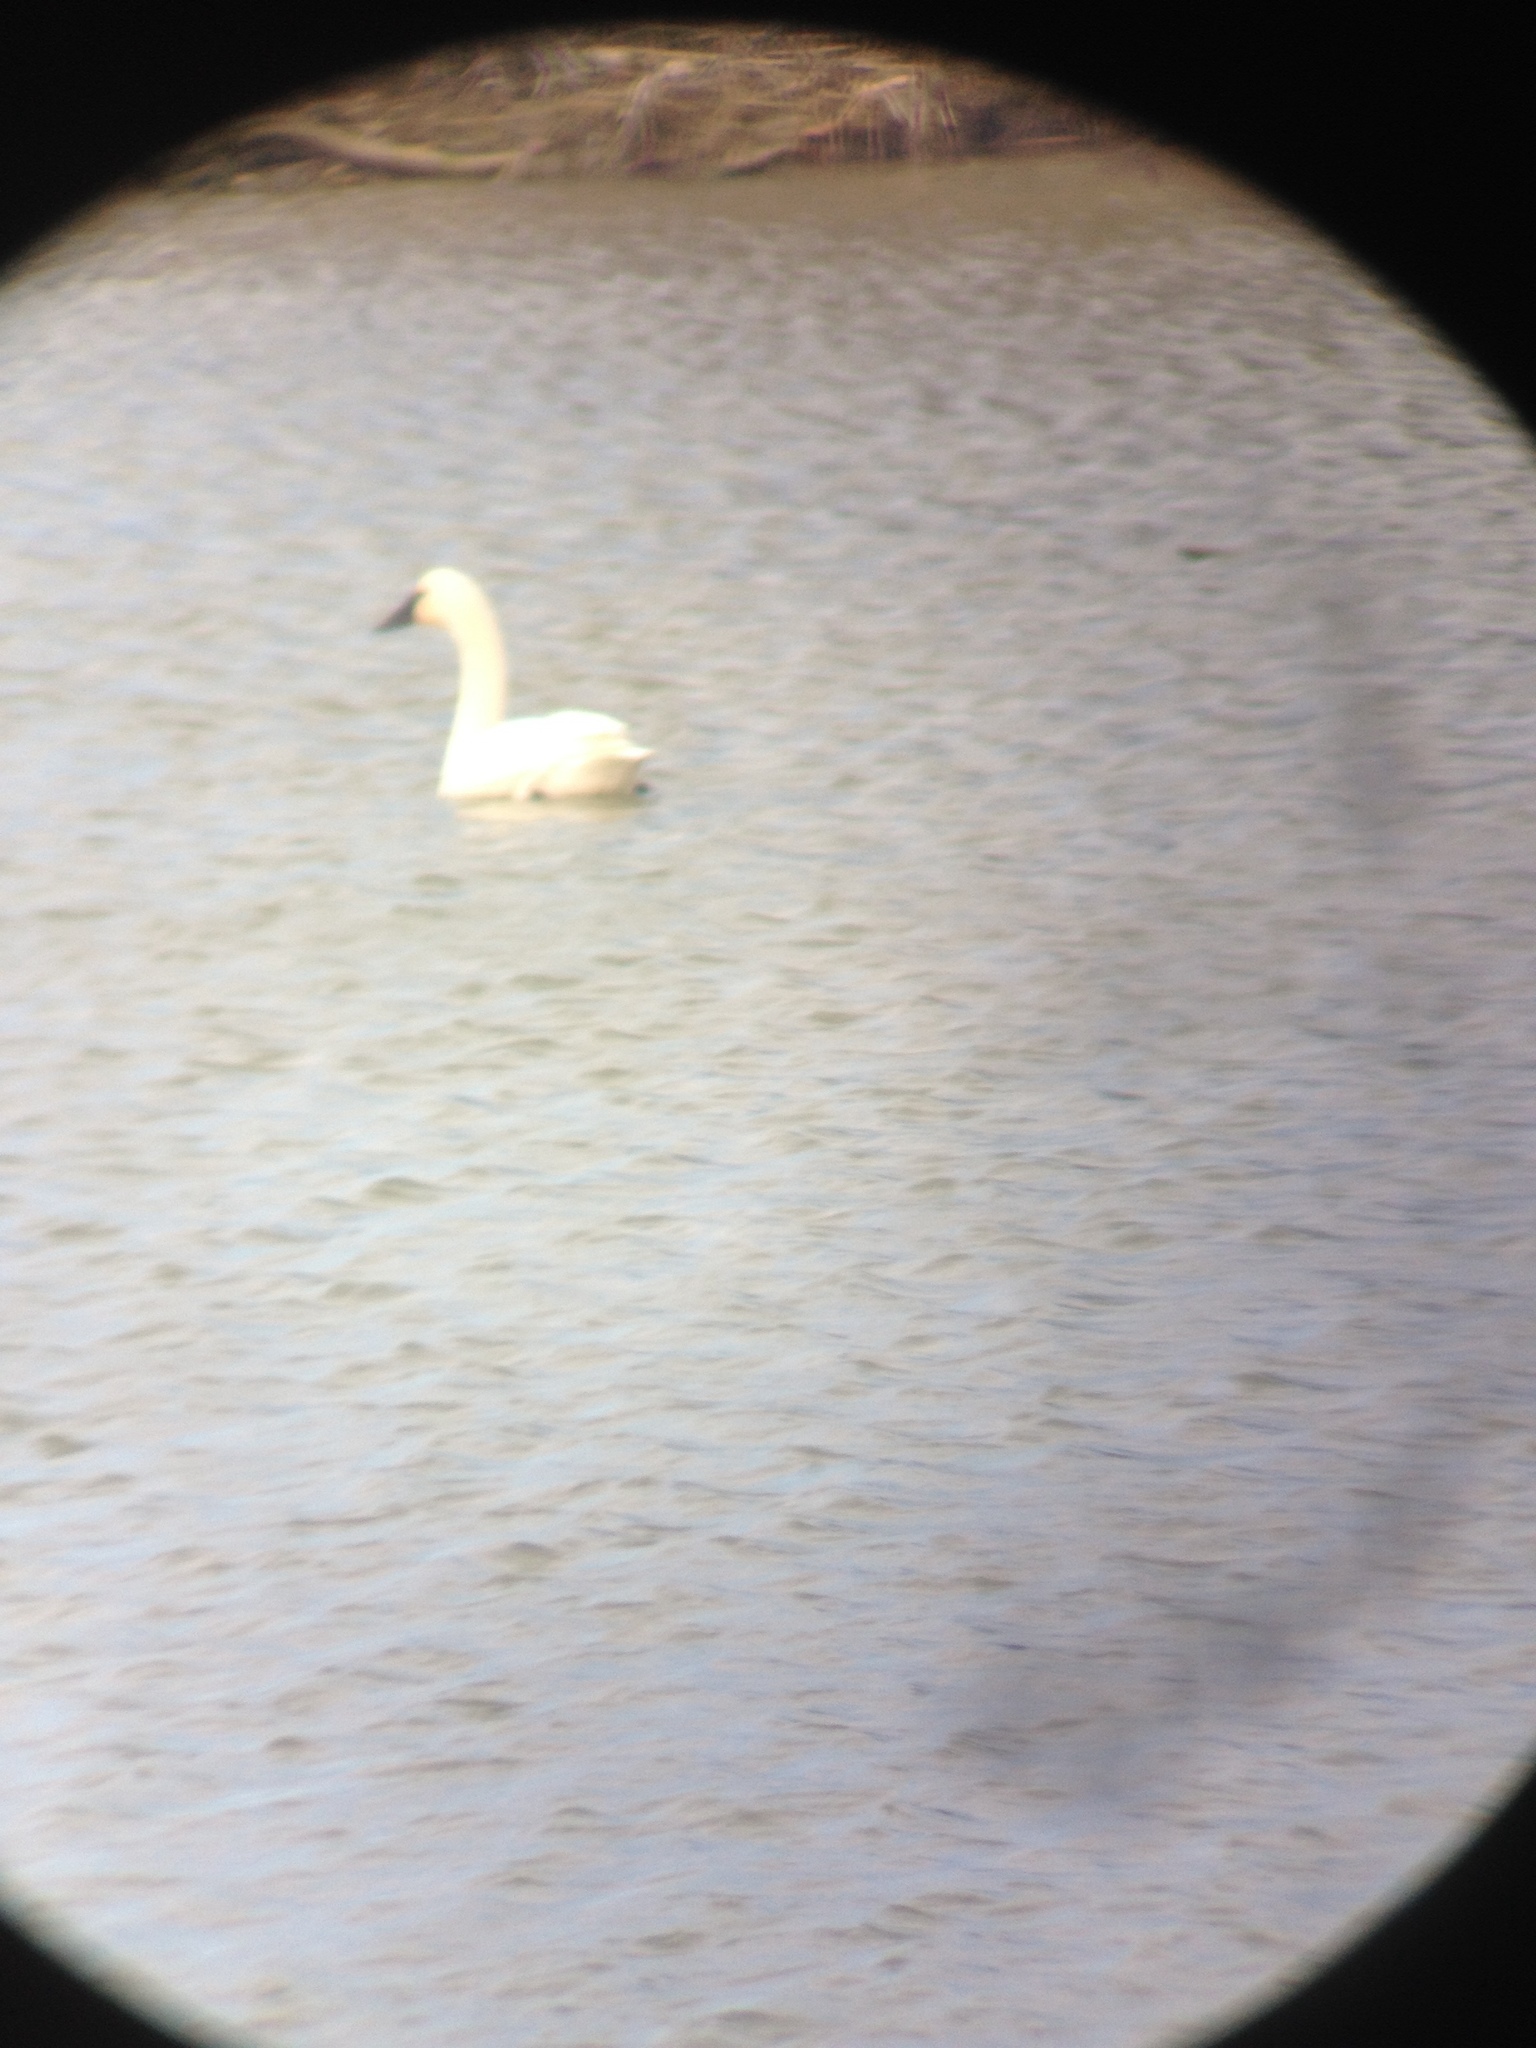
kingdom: Animalia
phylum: Chordata
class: Aves
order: Anseriformes
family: Anatidae
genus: Cygnus
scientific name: Cygnus columbianus
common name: Tundra swan
